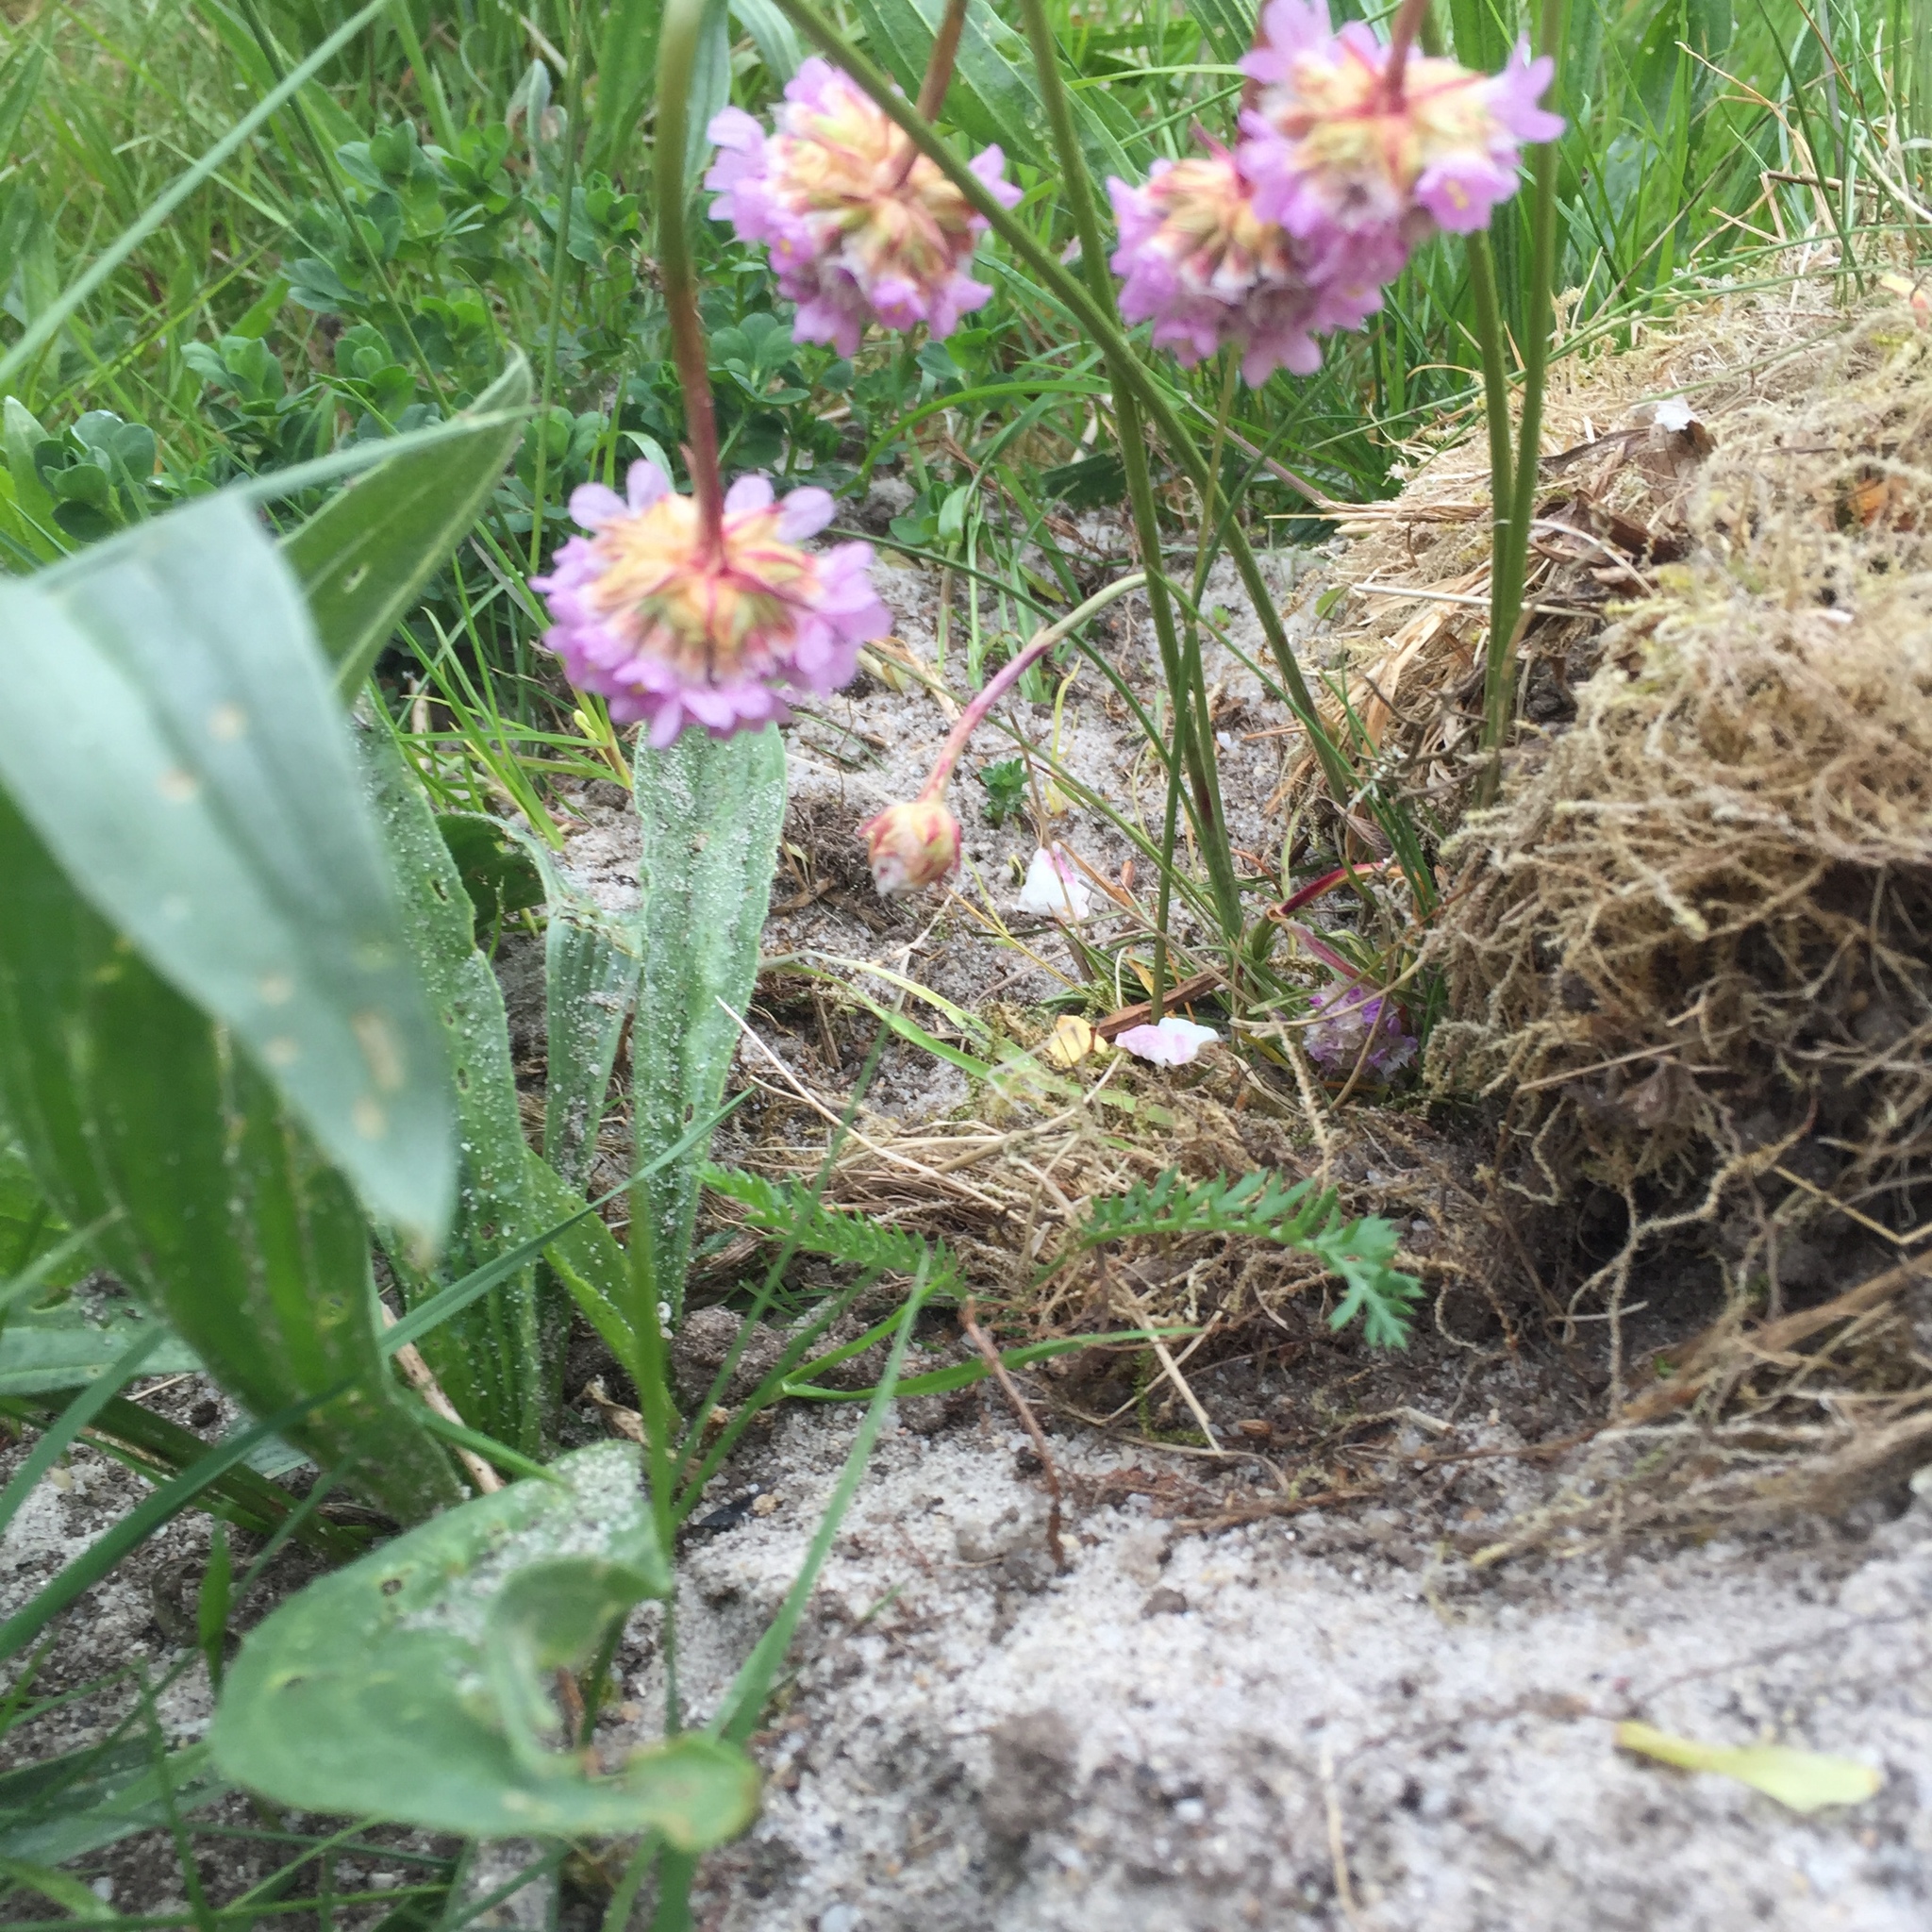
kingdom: Plantae
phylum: Tracheophyta
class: Magnoliopsida
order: Caryophyllales
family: Plumbaginaceae
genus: Armeria
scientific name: Armeria maritima
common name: Thrift
